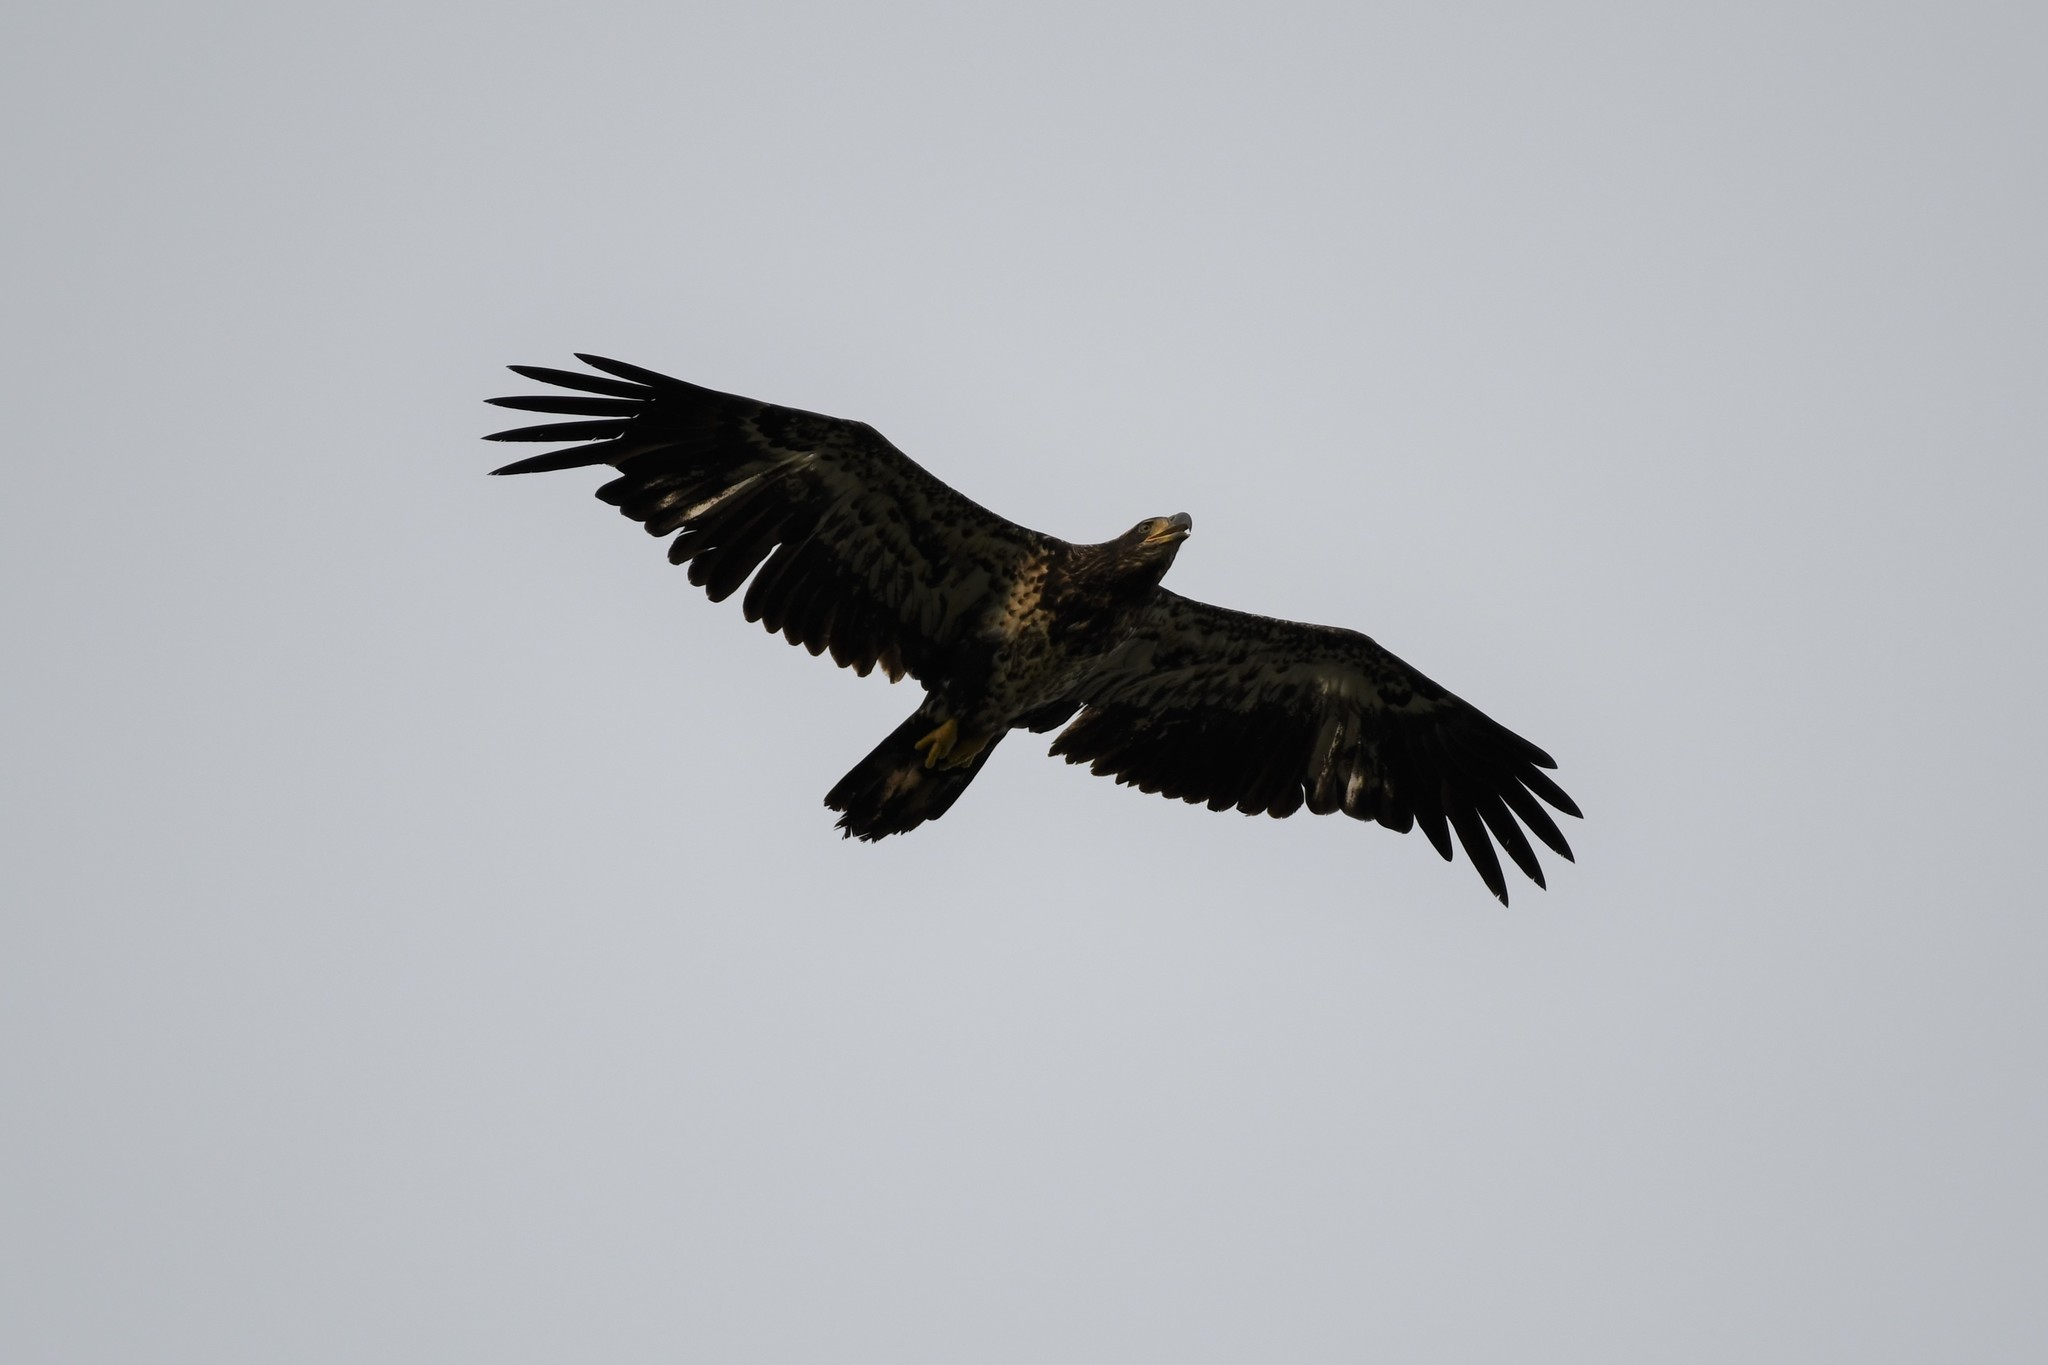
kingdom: Animalia
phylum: Chordata
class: Aves
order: Accipitriformes
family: Accipitridae
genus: Haliaeetus
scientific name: Haliaeetus leucocephalus
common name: Bald eagle
